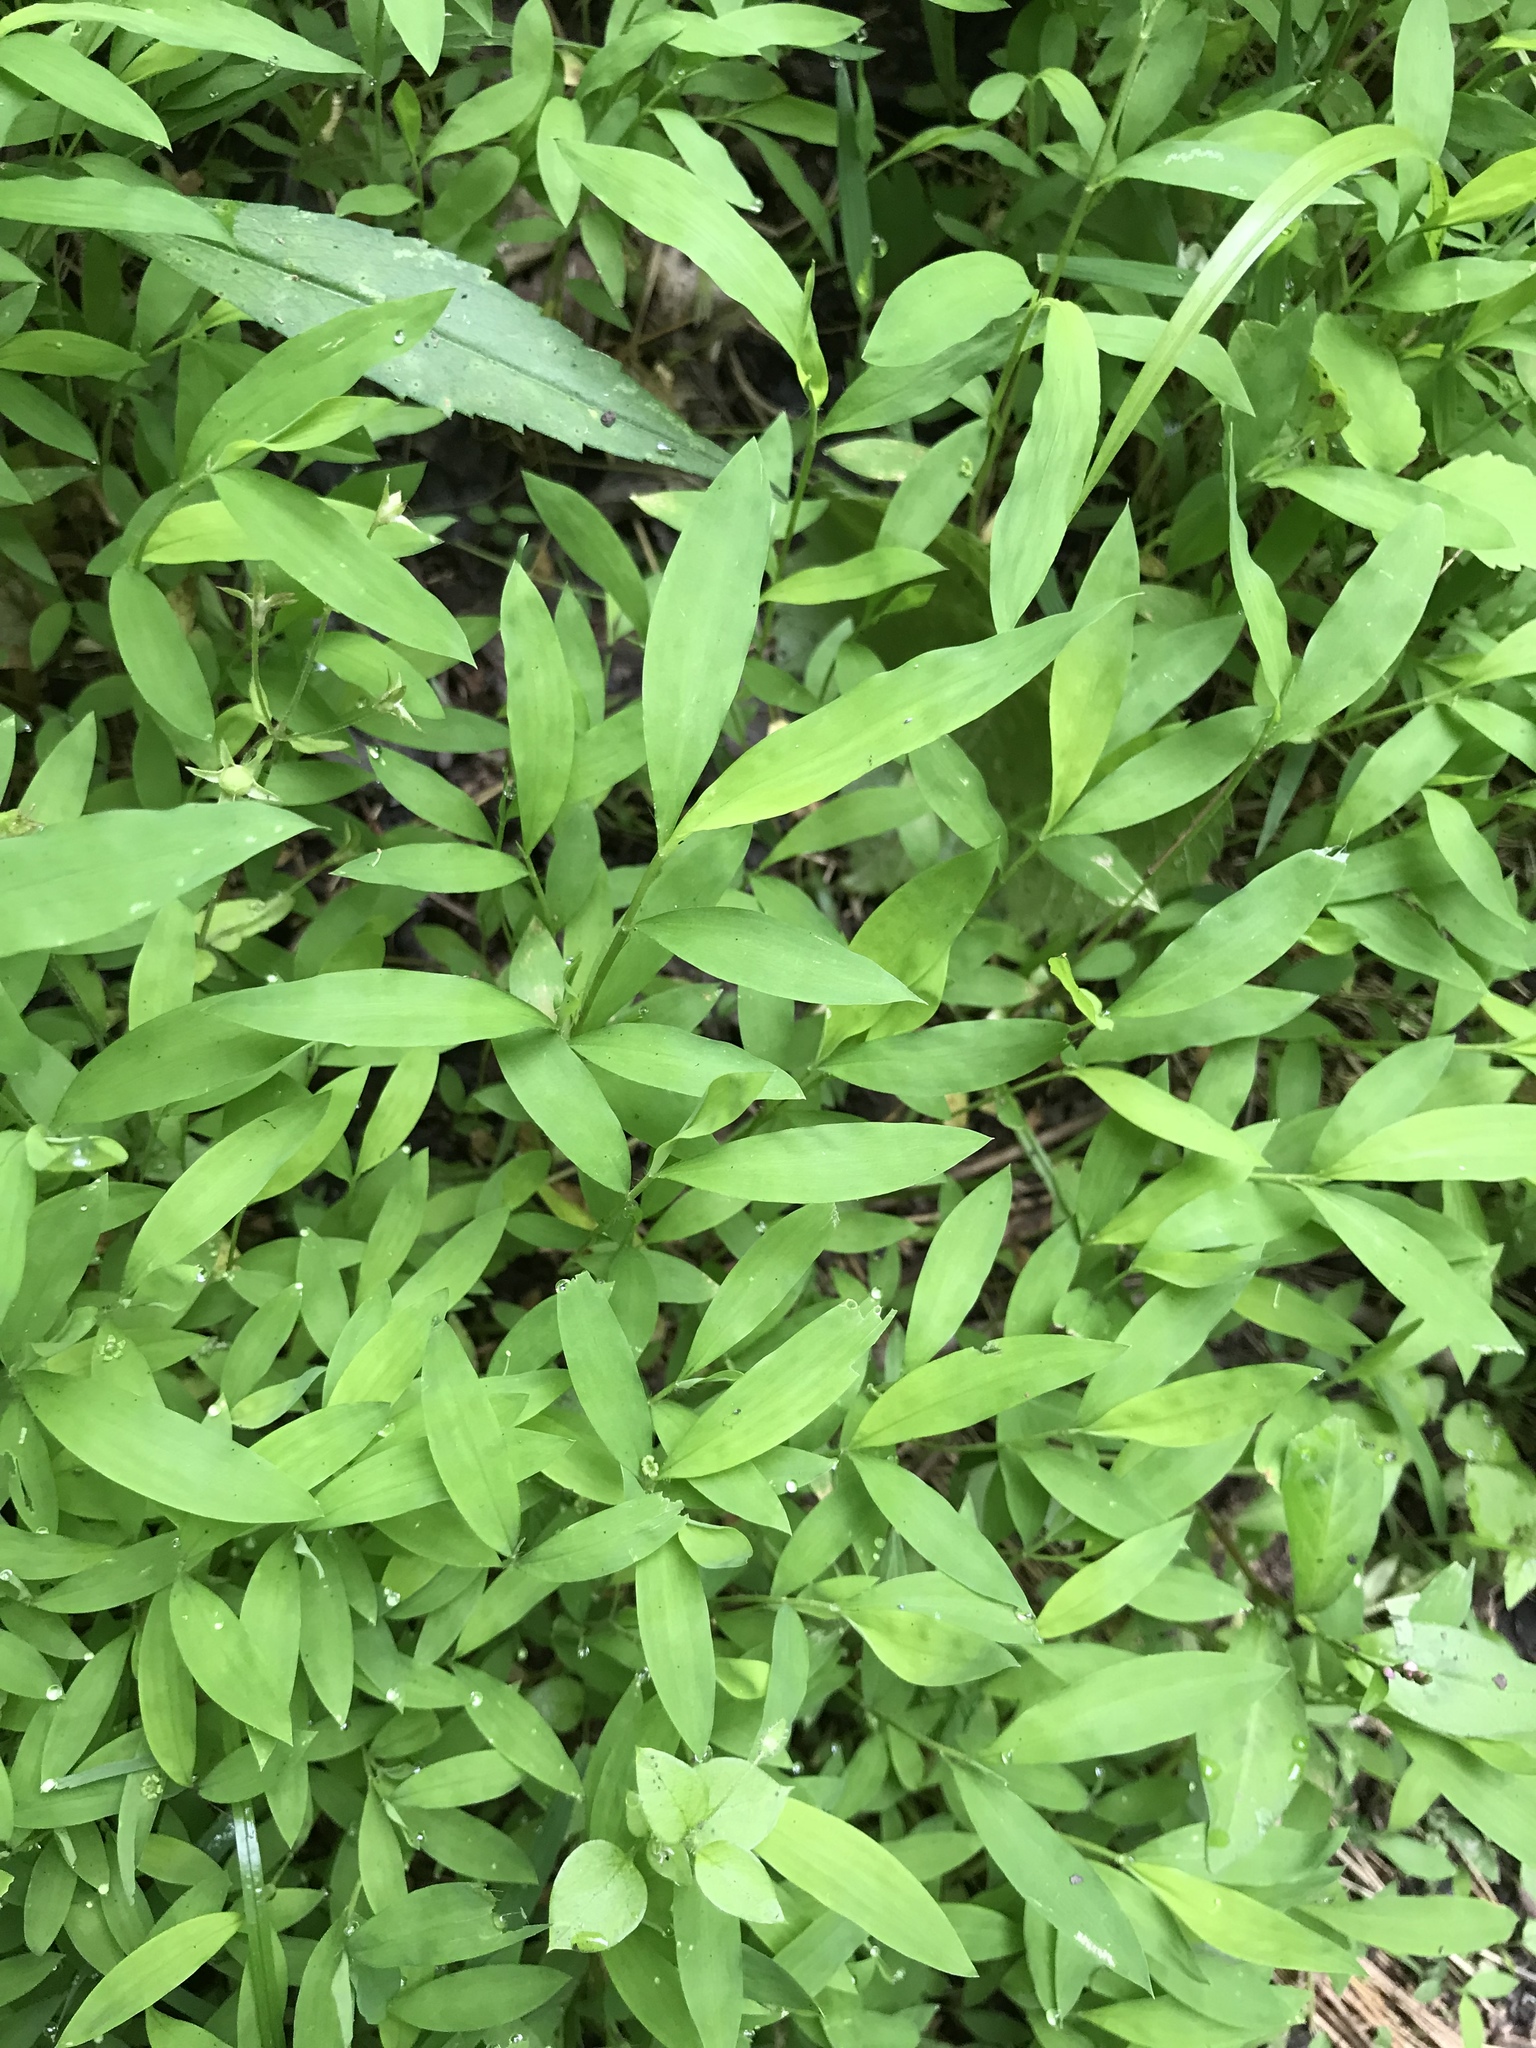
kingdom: Plantae
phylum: Tracheophyta
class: Liliopsida
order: Poales
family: Poaceae
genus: Microstegium
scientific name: Microstegium vimineum
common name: Japanese stiltgrass
